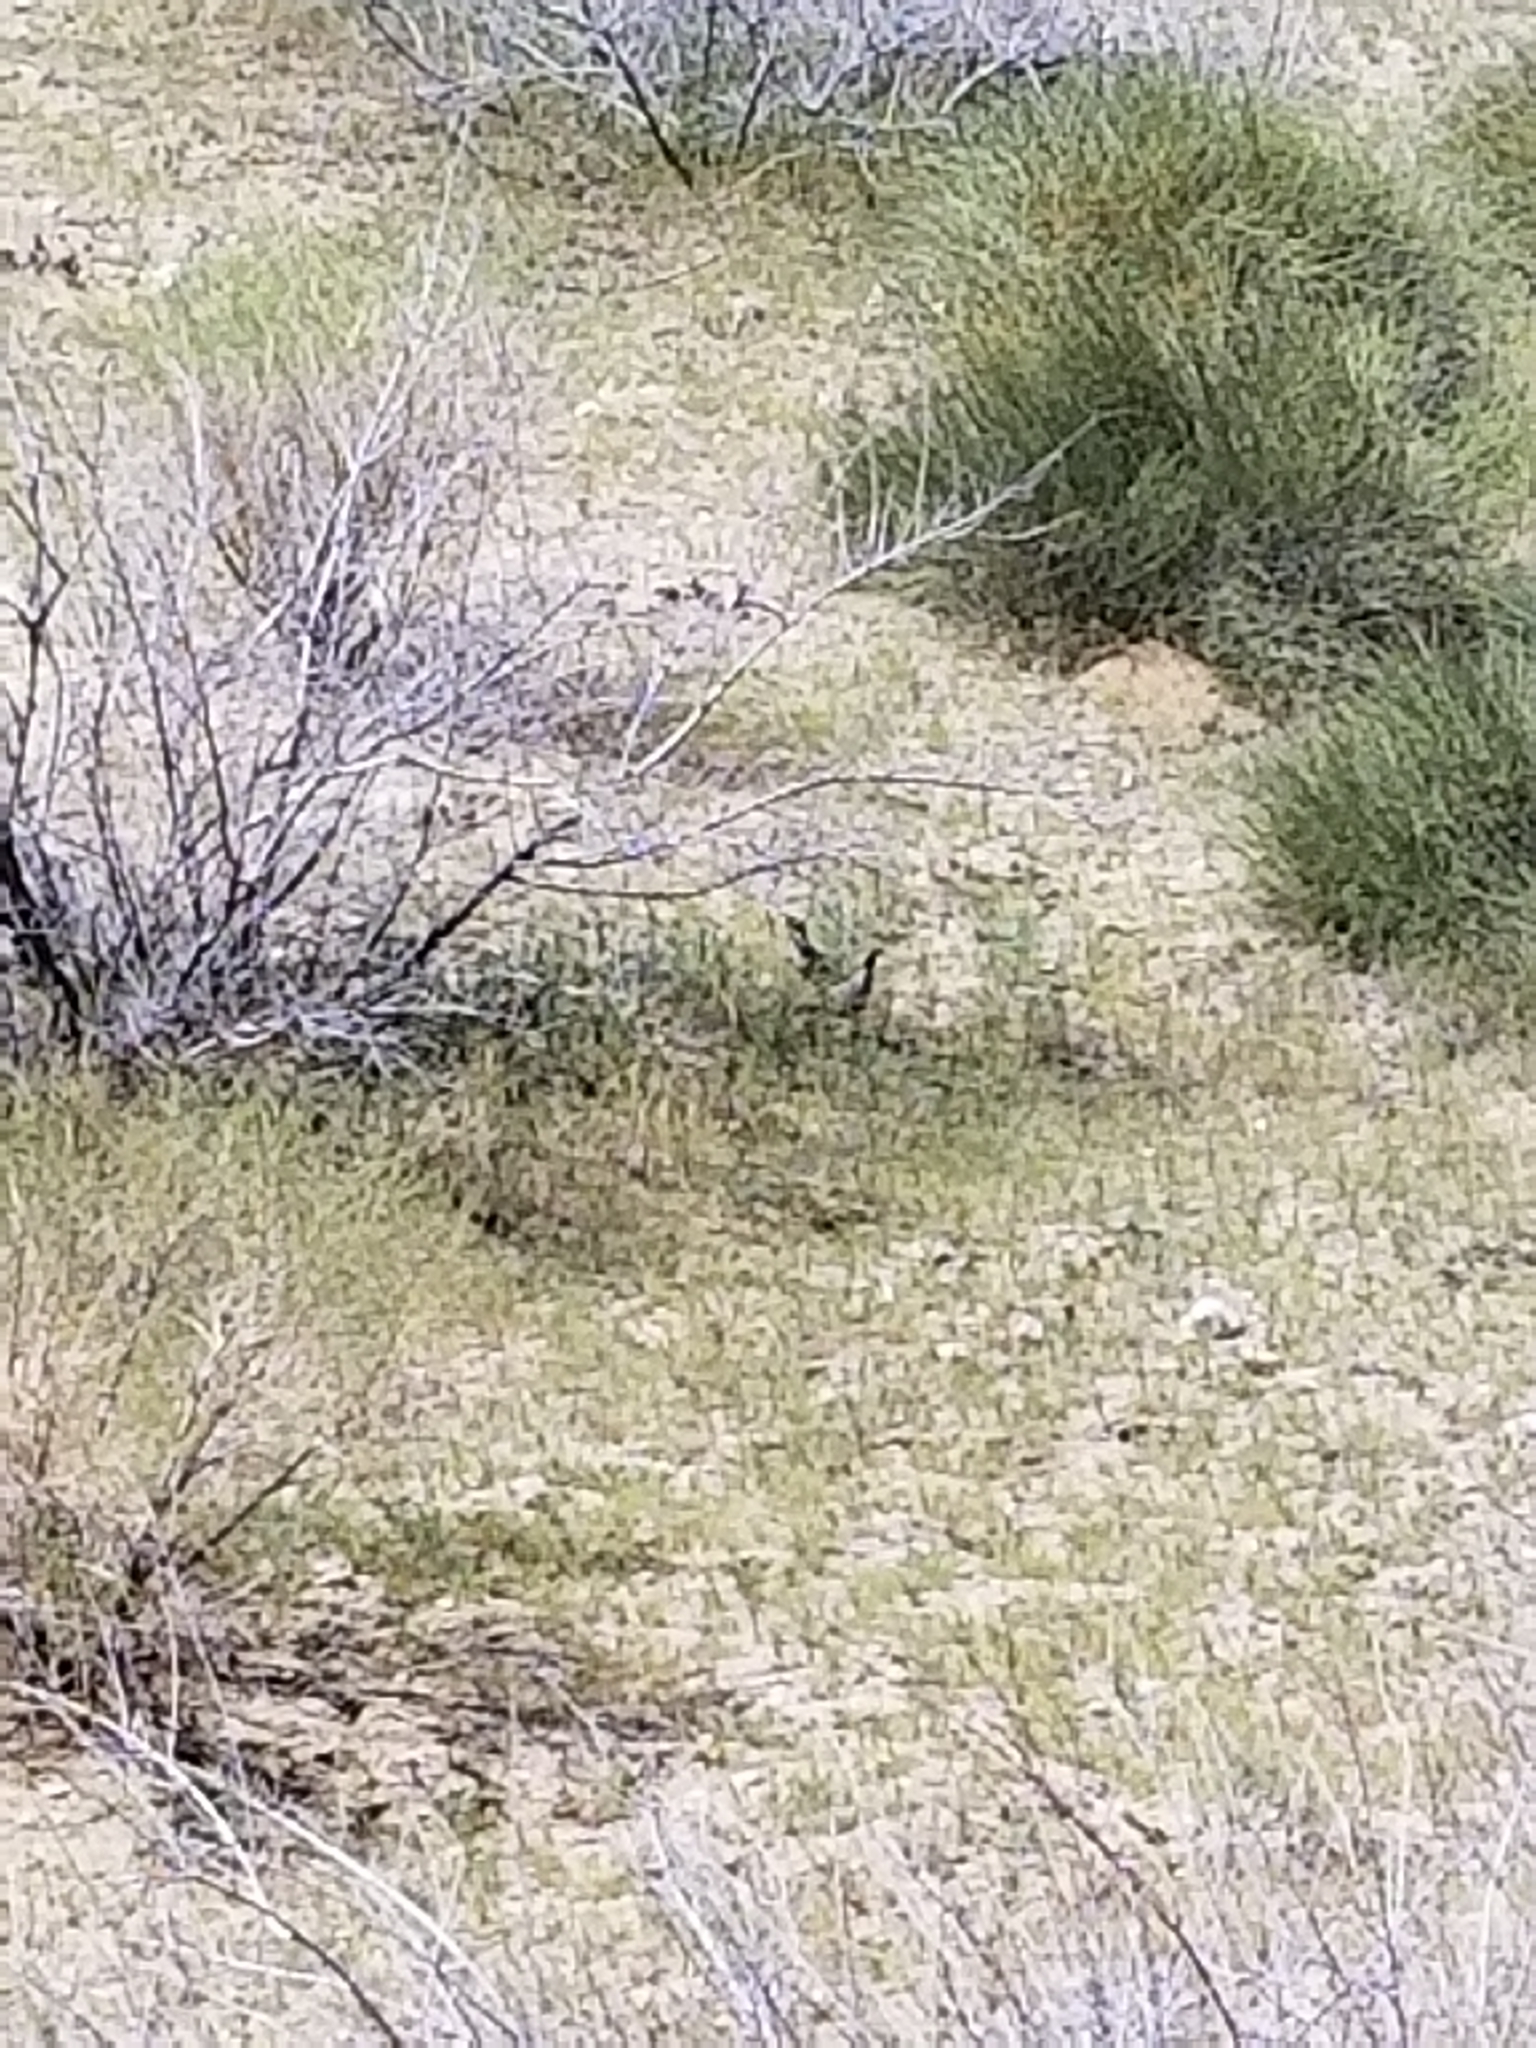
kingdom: Animalia
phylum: Chordata
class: Aves
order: Galliformes
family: Odontophoridae
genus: Callipepla
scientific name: Callipepla gambelii
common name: Gambel's quail
